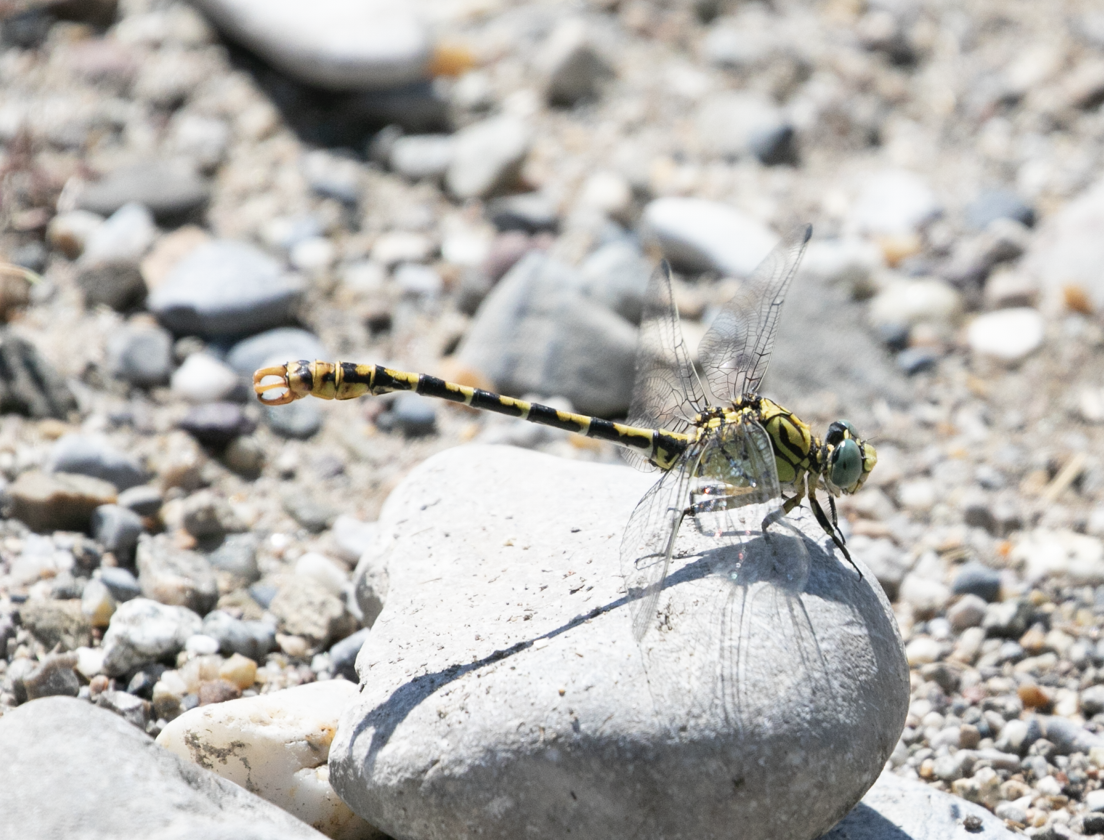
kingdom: Animalia
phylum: Arthropoda
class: Insecta
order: Odonata
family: Gomphidae
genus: Onychogomphus
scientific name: Onychogomphus forcipatus
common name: Small pincertail
